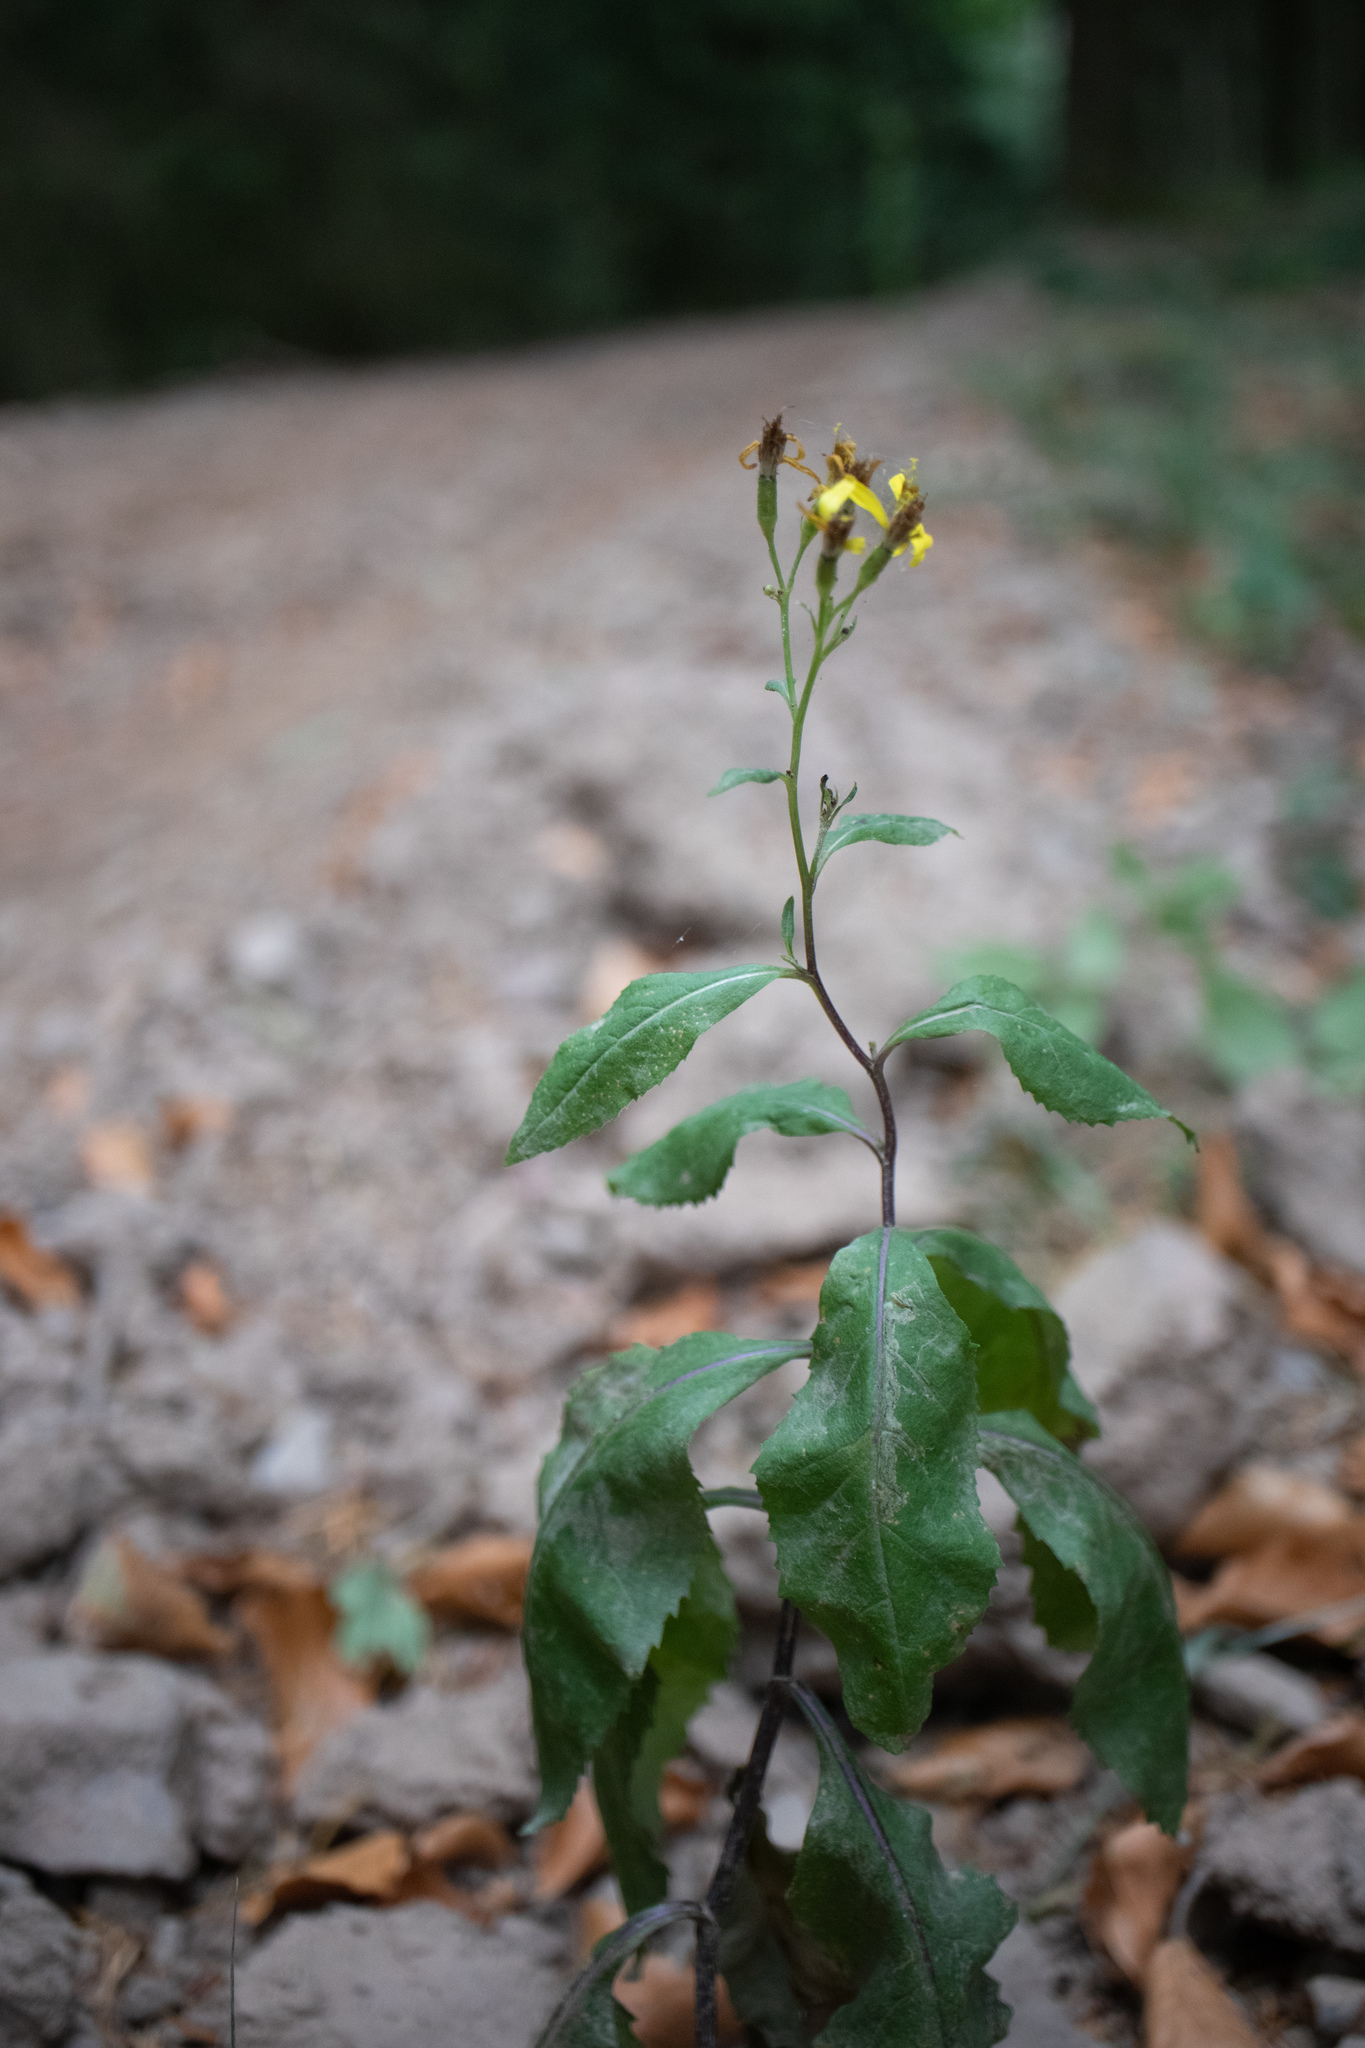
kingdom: Plantae
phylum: Tracheophyta
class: Magnoliopsida
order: Asterales
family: Asteraceae
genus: Senecio
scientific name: Senecio ovatus
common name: Wood ragwort
